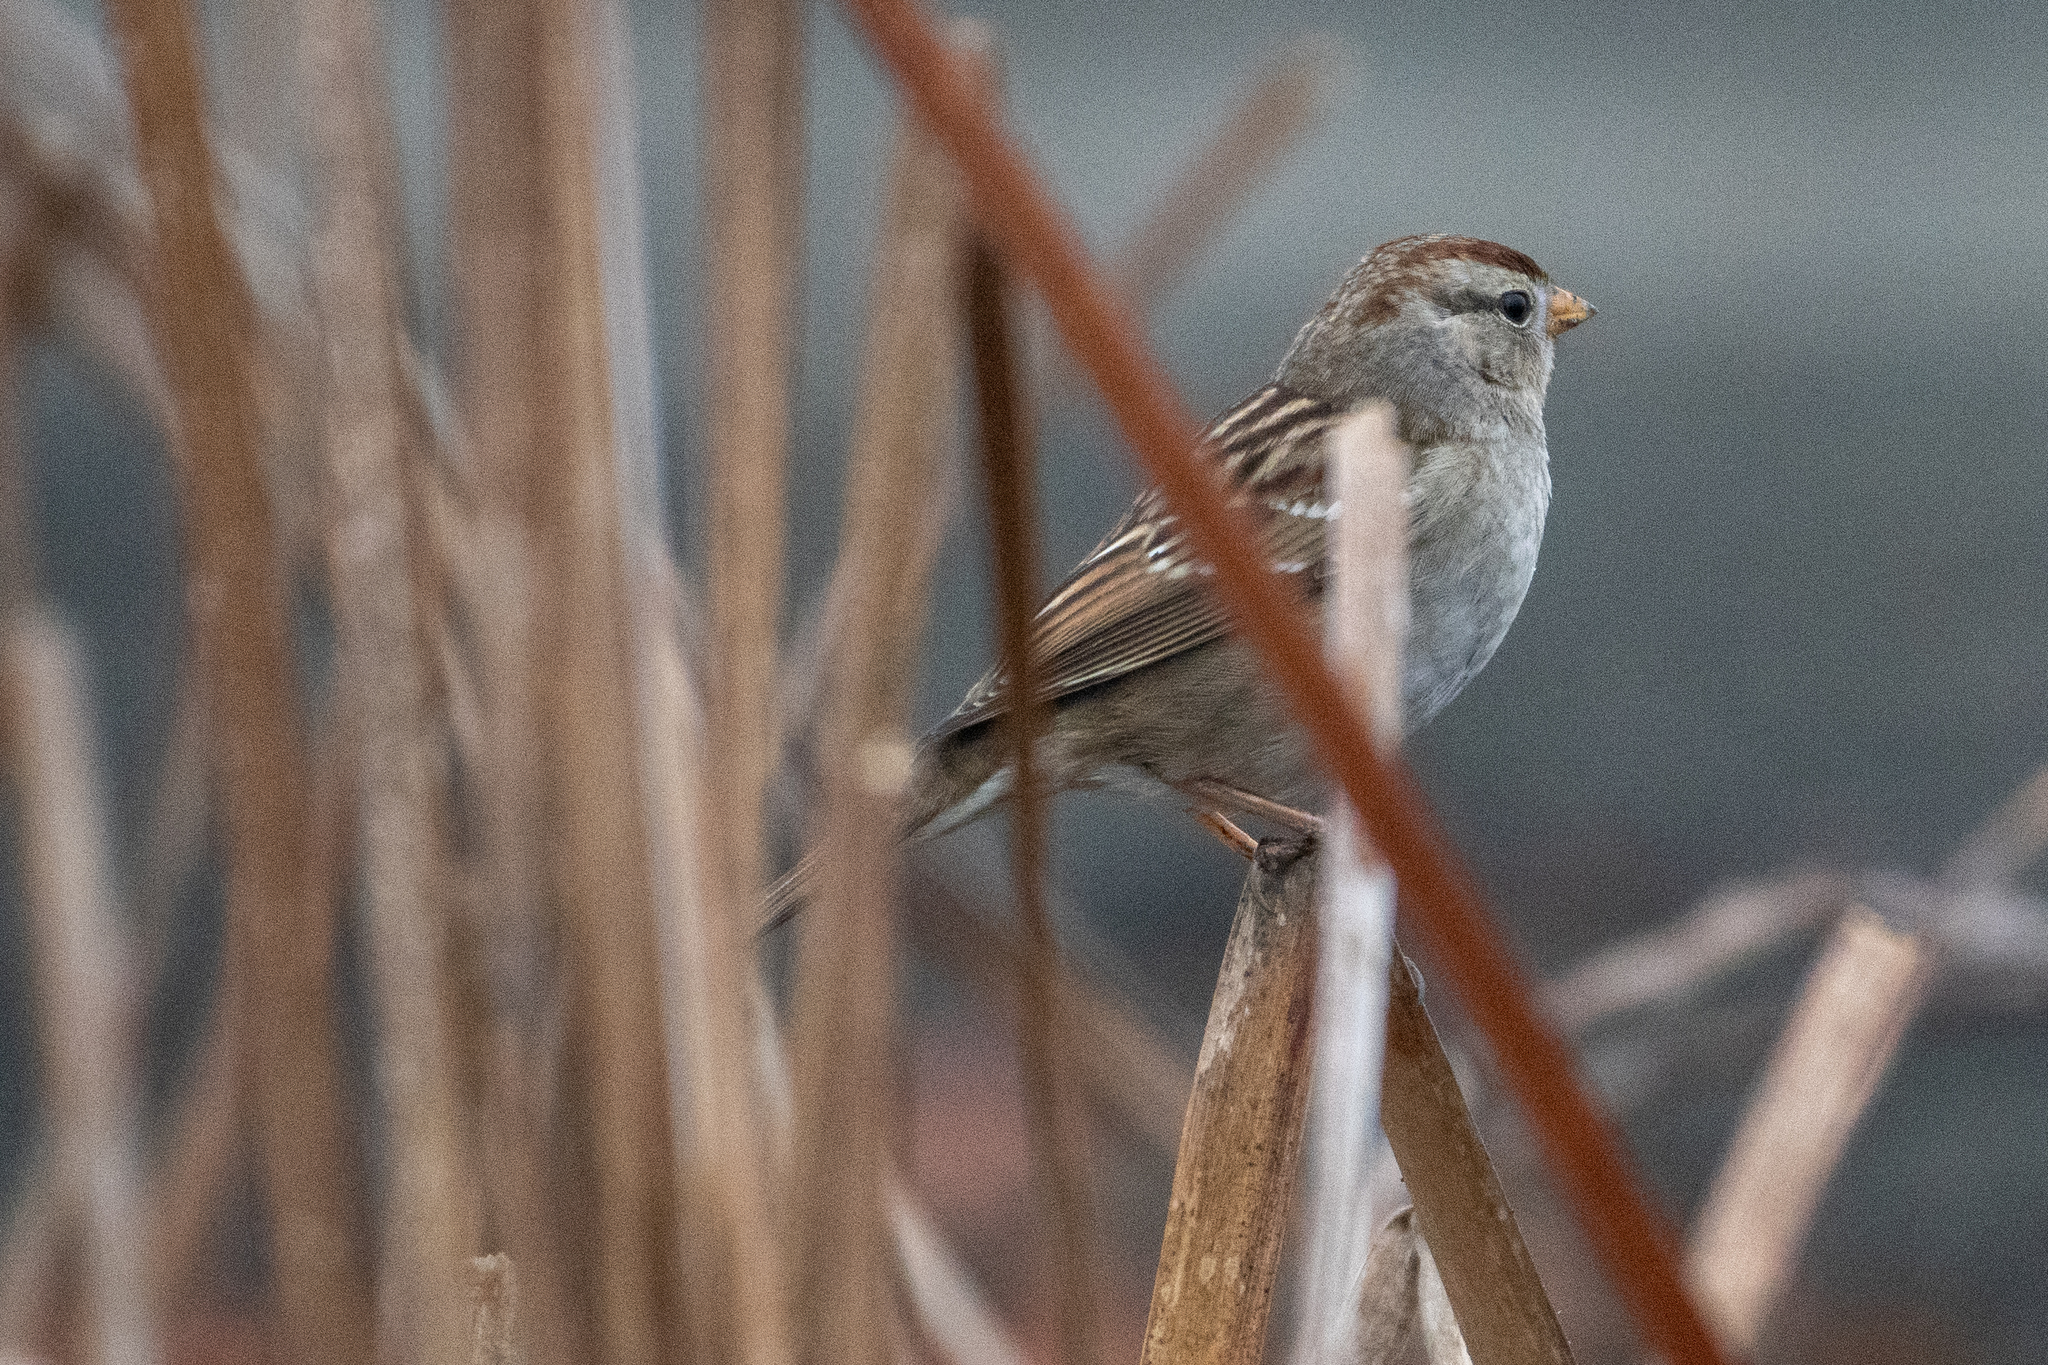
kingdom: Animalia
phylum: Chordata
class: Aves
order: Passeriformes
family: Passerellidae
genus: Zonotrichia
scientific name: Zonotrichia leucophrys
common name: White-crowned sparrow
